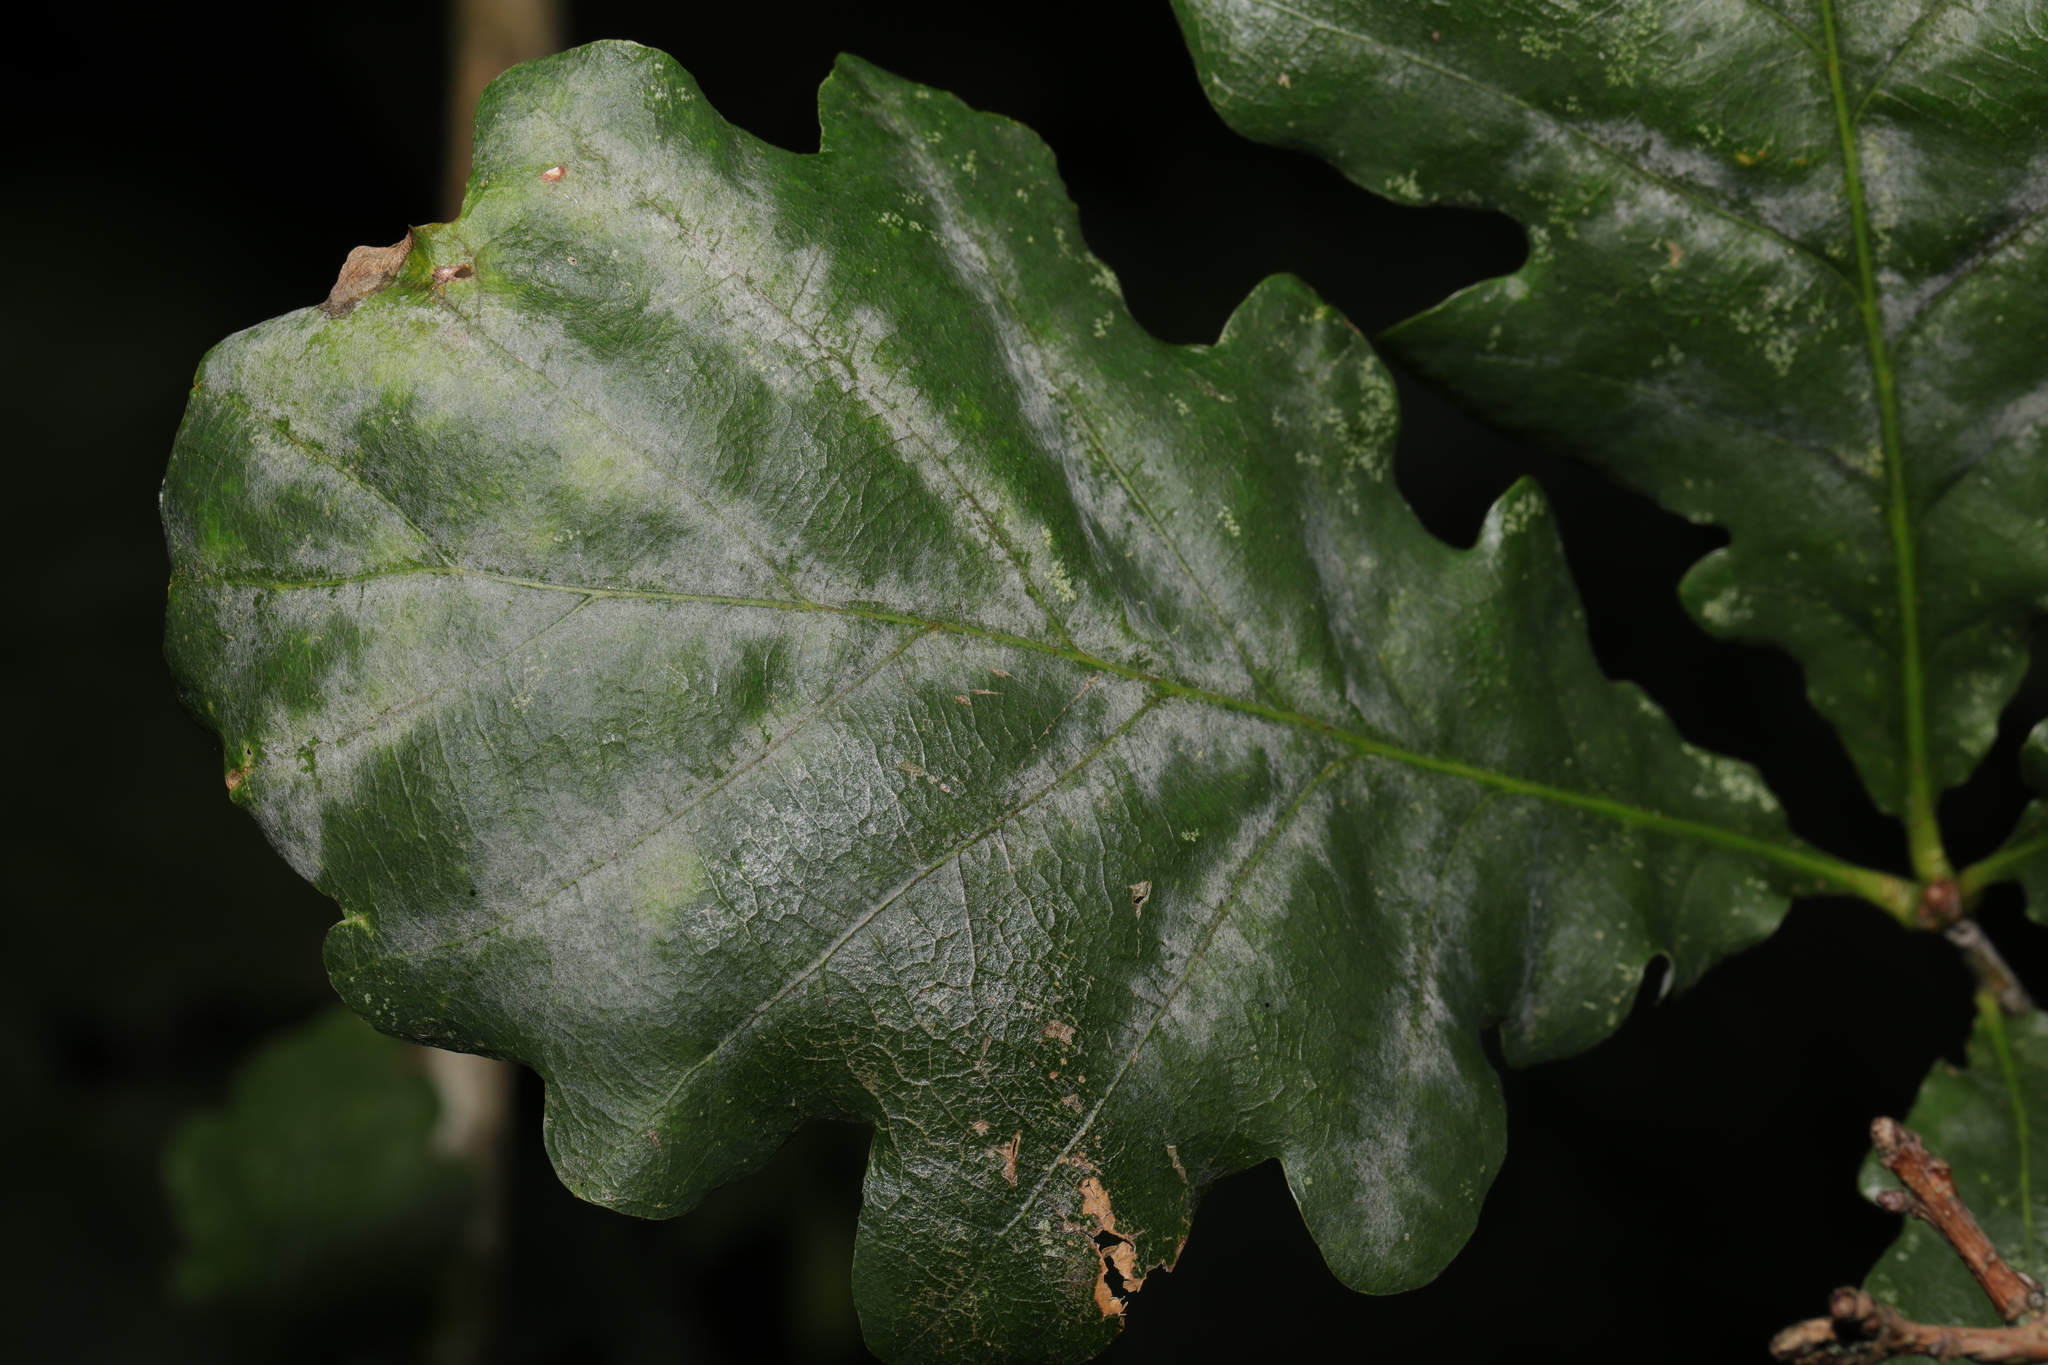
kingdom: Fungi
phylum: Ascomycota
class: Leotiomycetes
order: Helotiales
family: Erysiphaceae
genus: Erysiphe
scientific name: Erysiphe alphitoides
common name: Oak mildew
